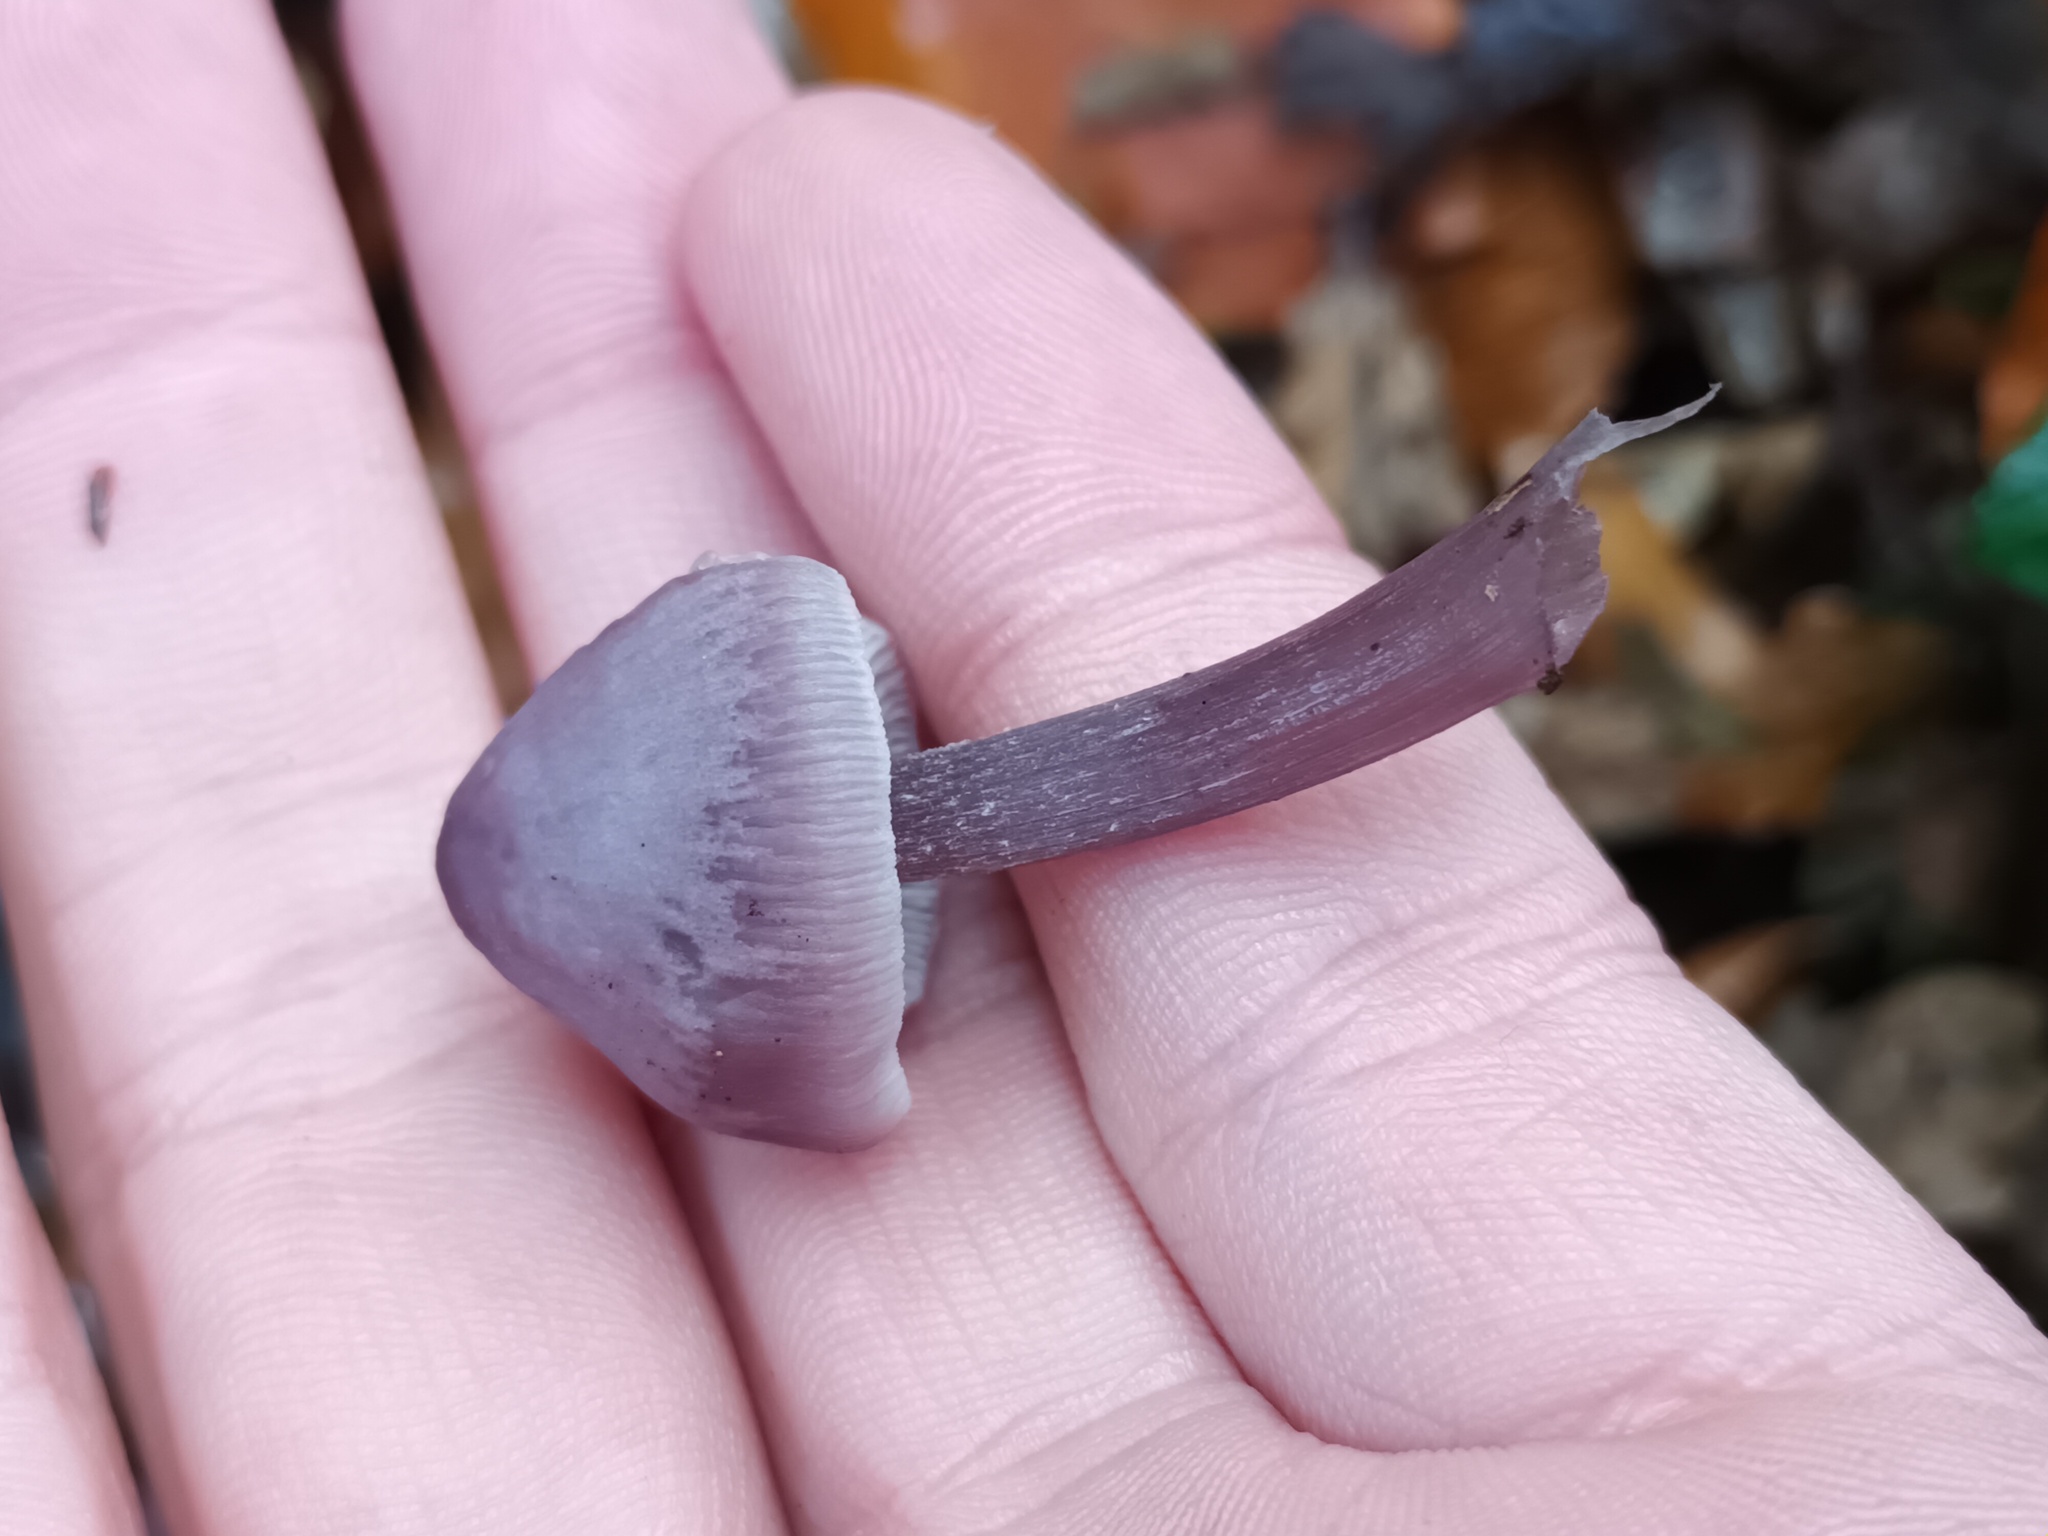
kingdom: Fungi
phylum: Basidiomycota
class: Agaricomycetes
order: Agaricales
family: Mycenaceae
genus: Mycena
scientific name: Mycena pura
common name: Lilac bonnet
